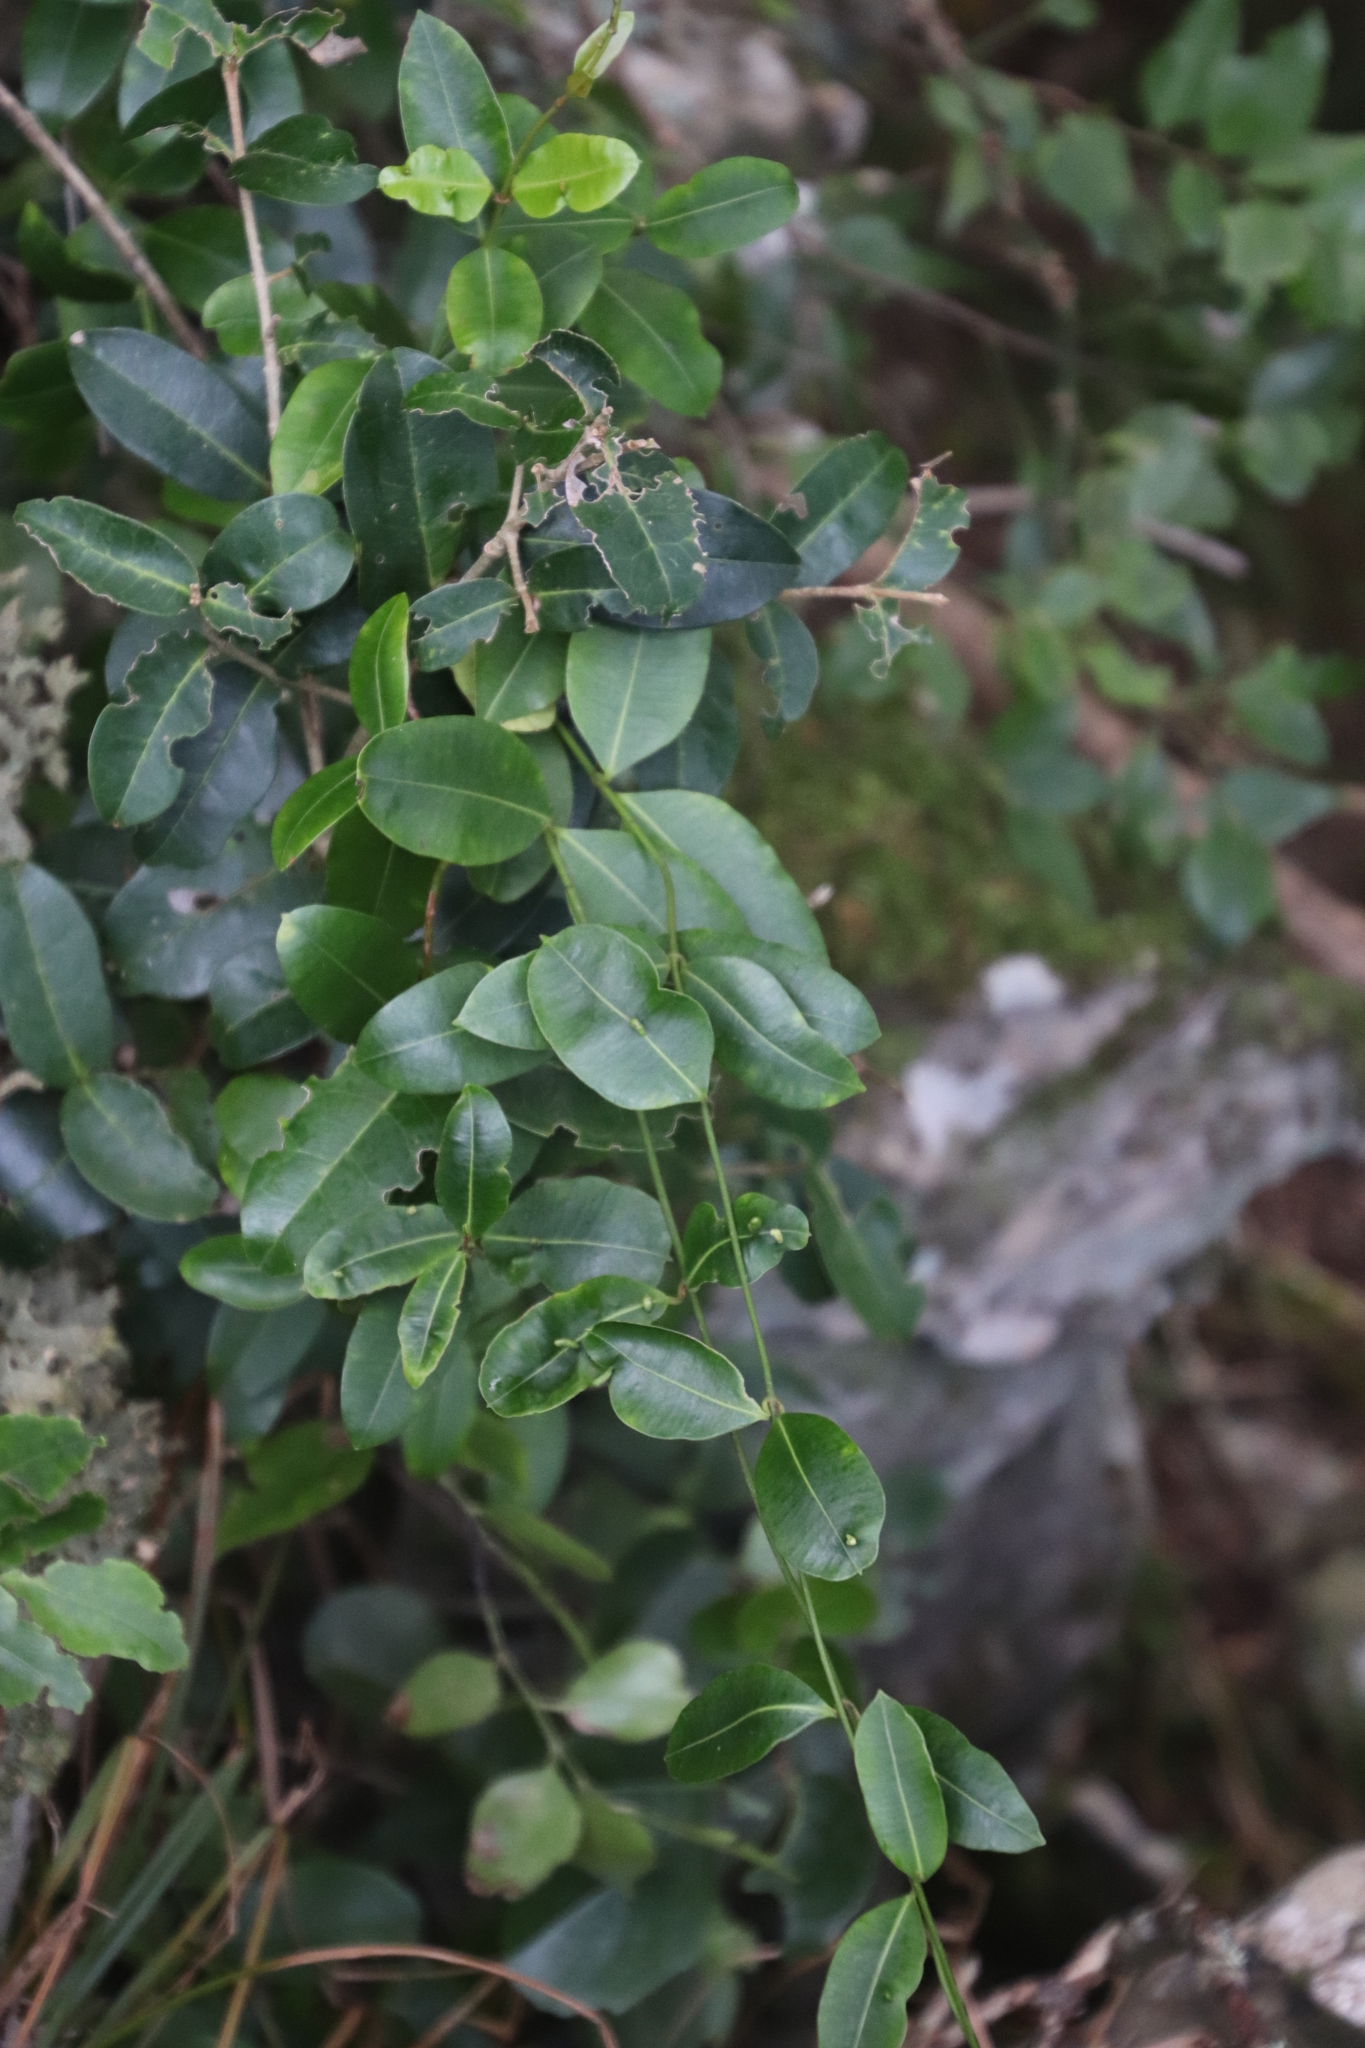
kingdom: Plantae
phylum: Tracheophyta
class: Magnoliopsida
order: Gentianales
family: Apocynaceae
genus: Secamone
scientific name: Secamone alpini
